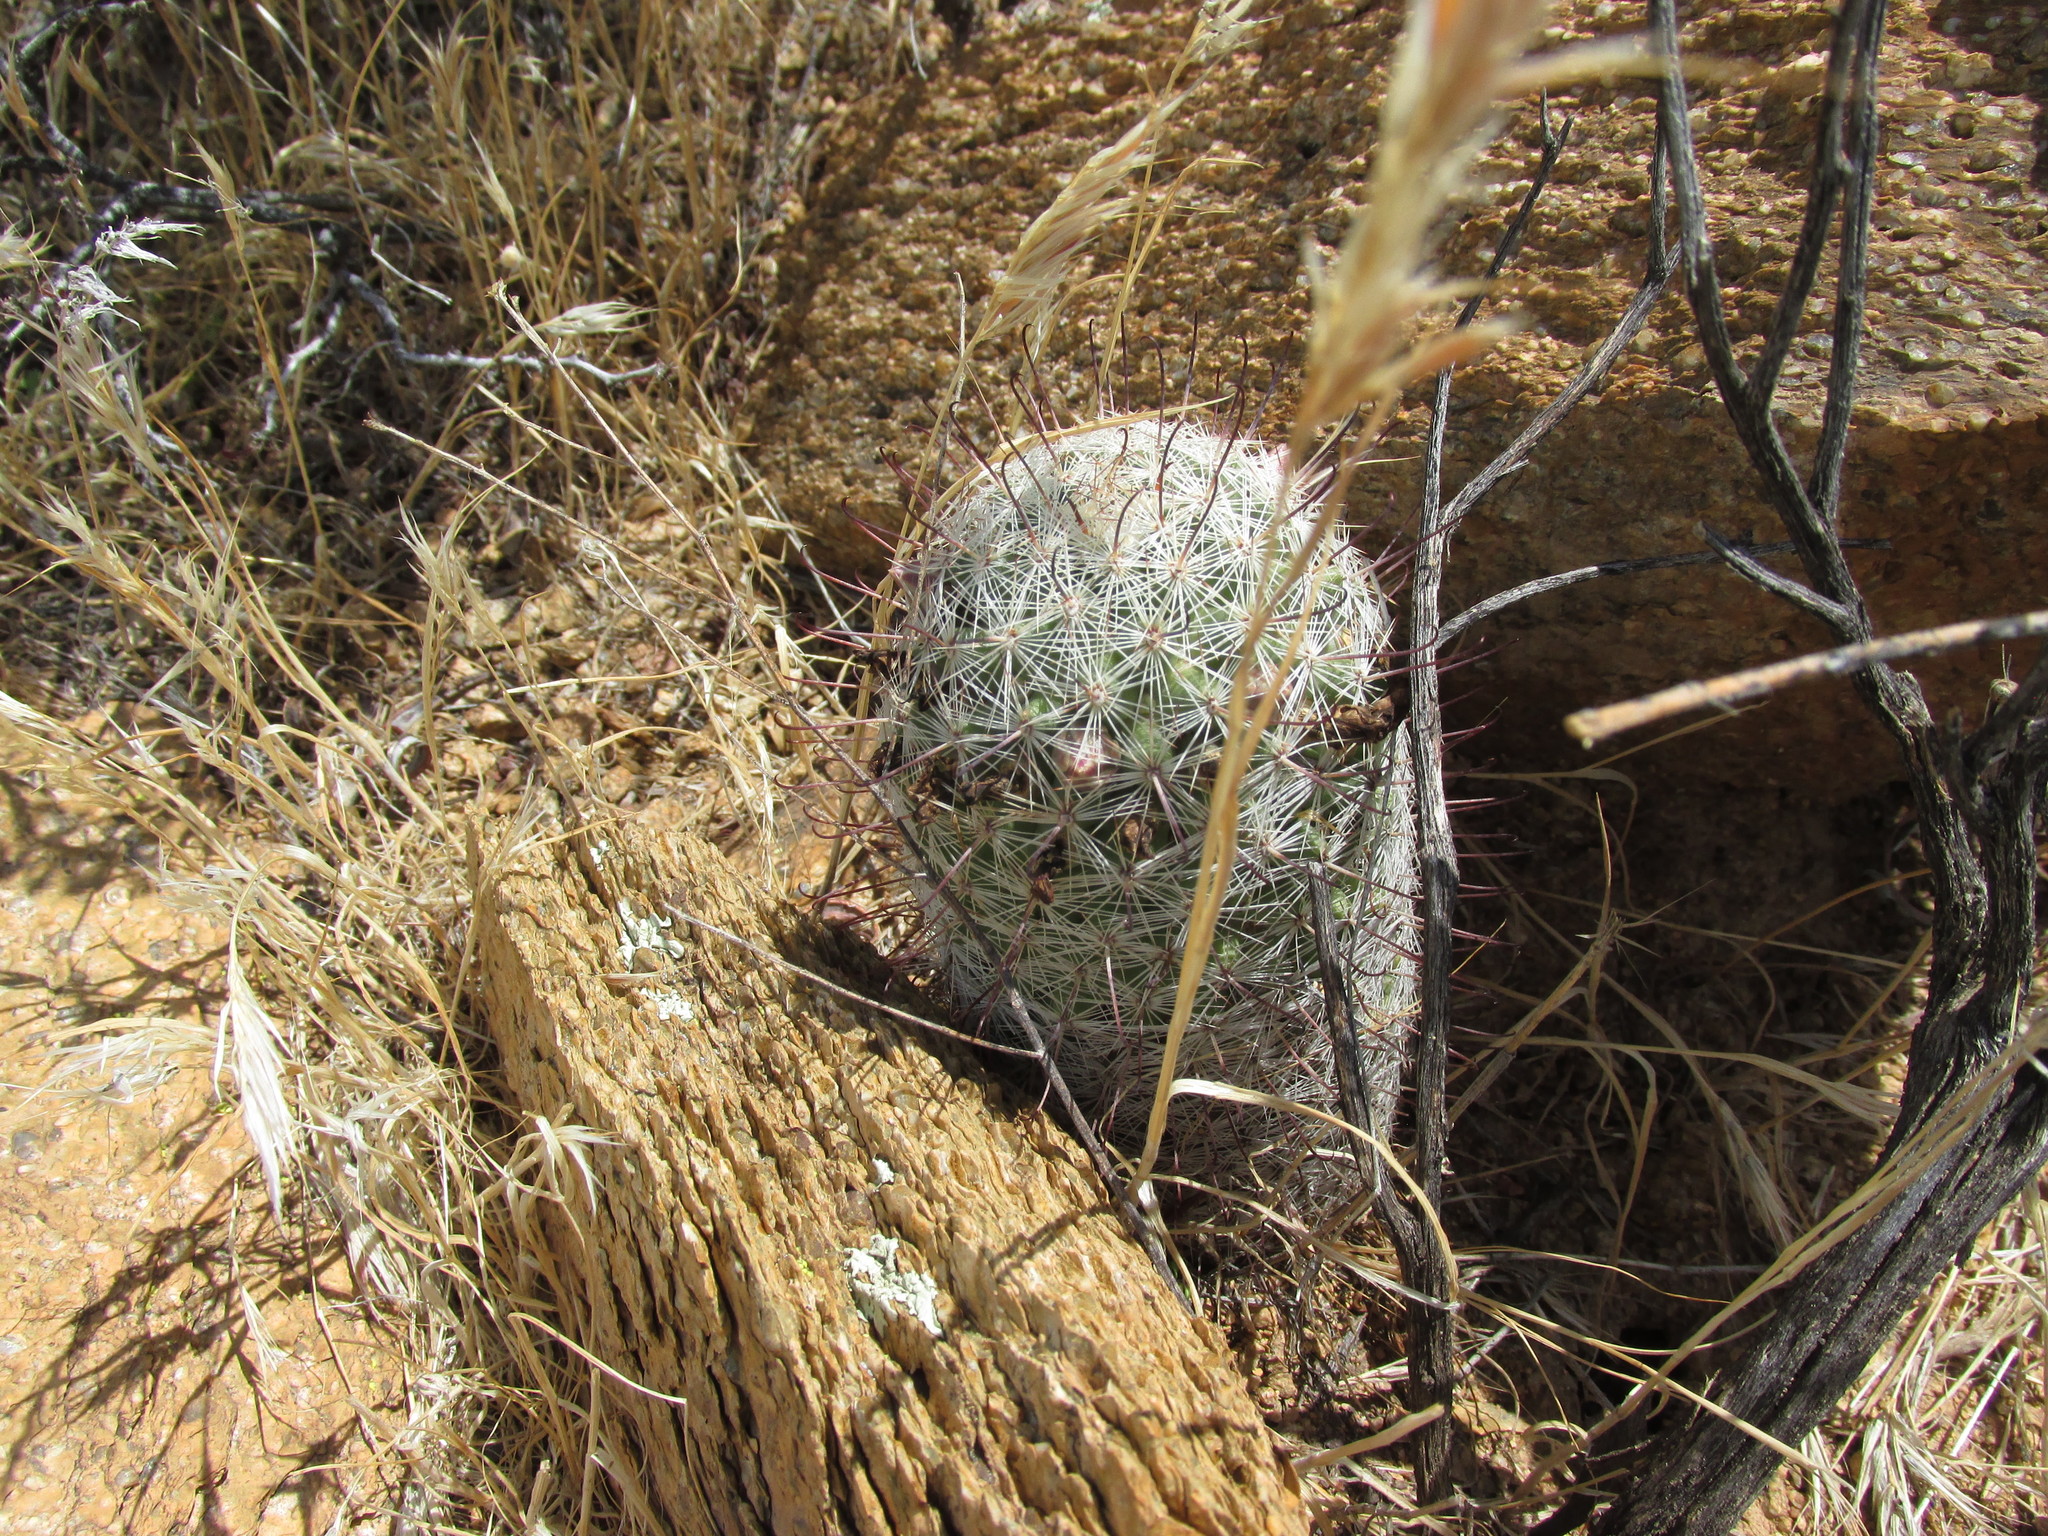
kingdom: Plantae
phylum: Tracheophyta
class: Magnoliopsida
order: Caryophyllales
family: Cactaceae
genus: Cochemiea
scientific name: Cochemiea grahamii
